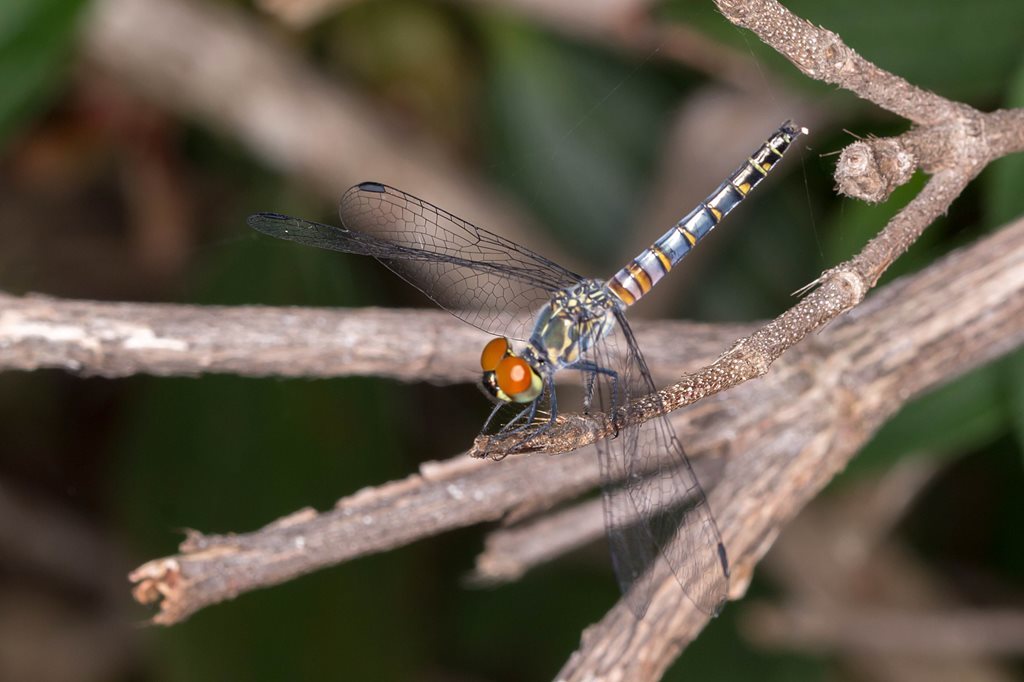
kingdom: Animalia
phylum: Arthropoda
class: Insecta
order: Odonata
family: Libellulidae
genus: Brachydiplax
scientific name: Brachydiplax denticauda
